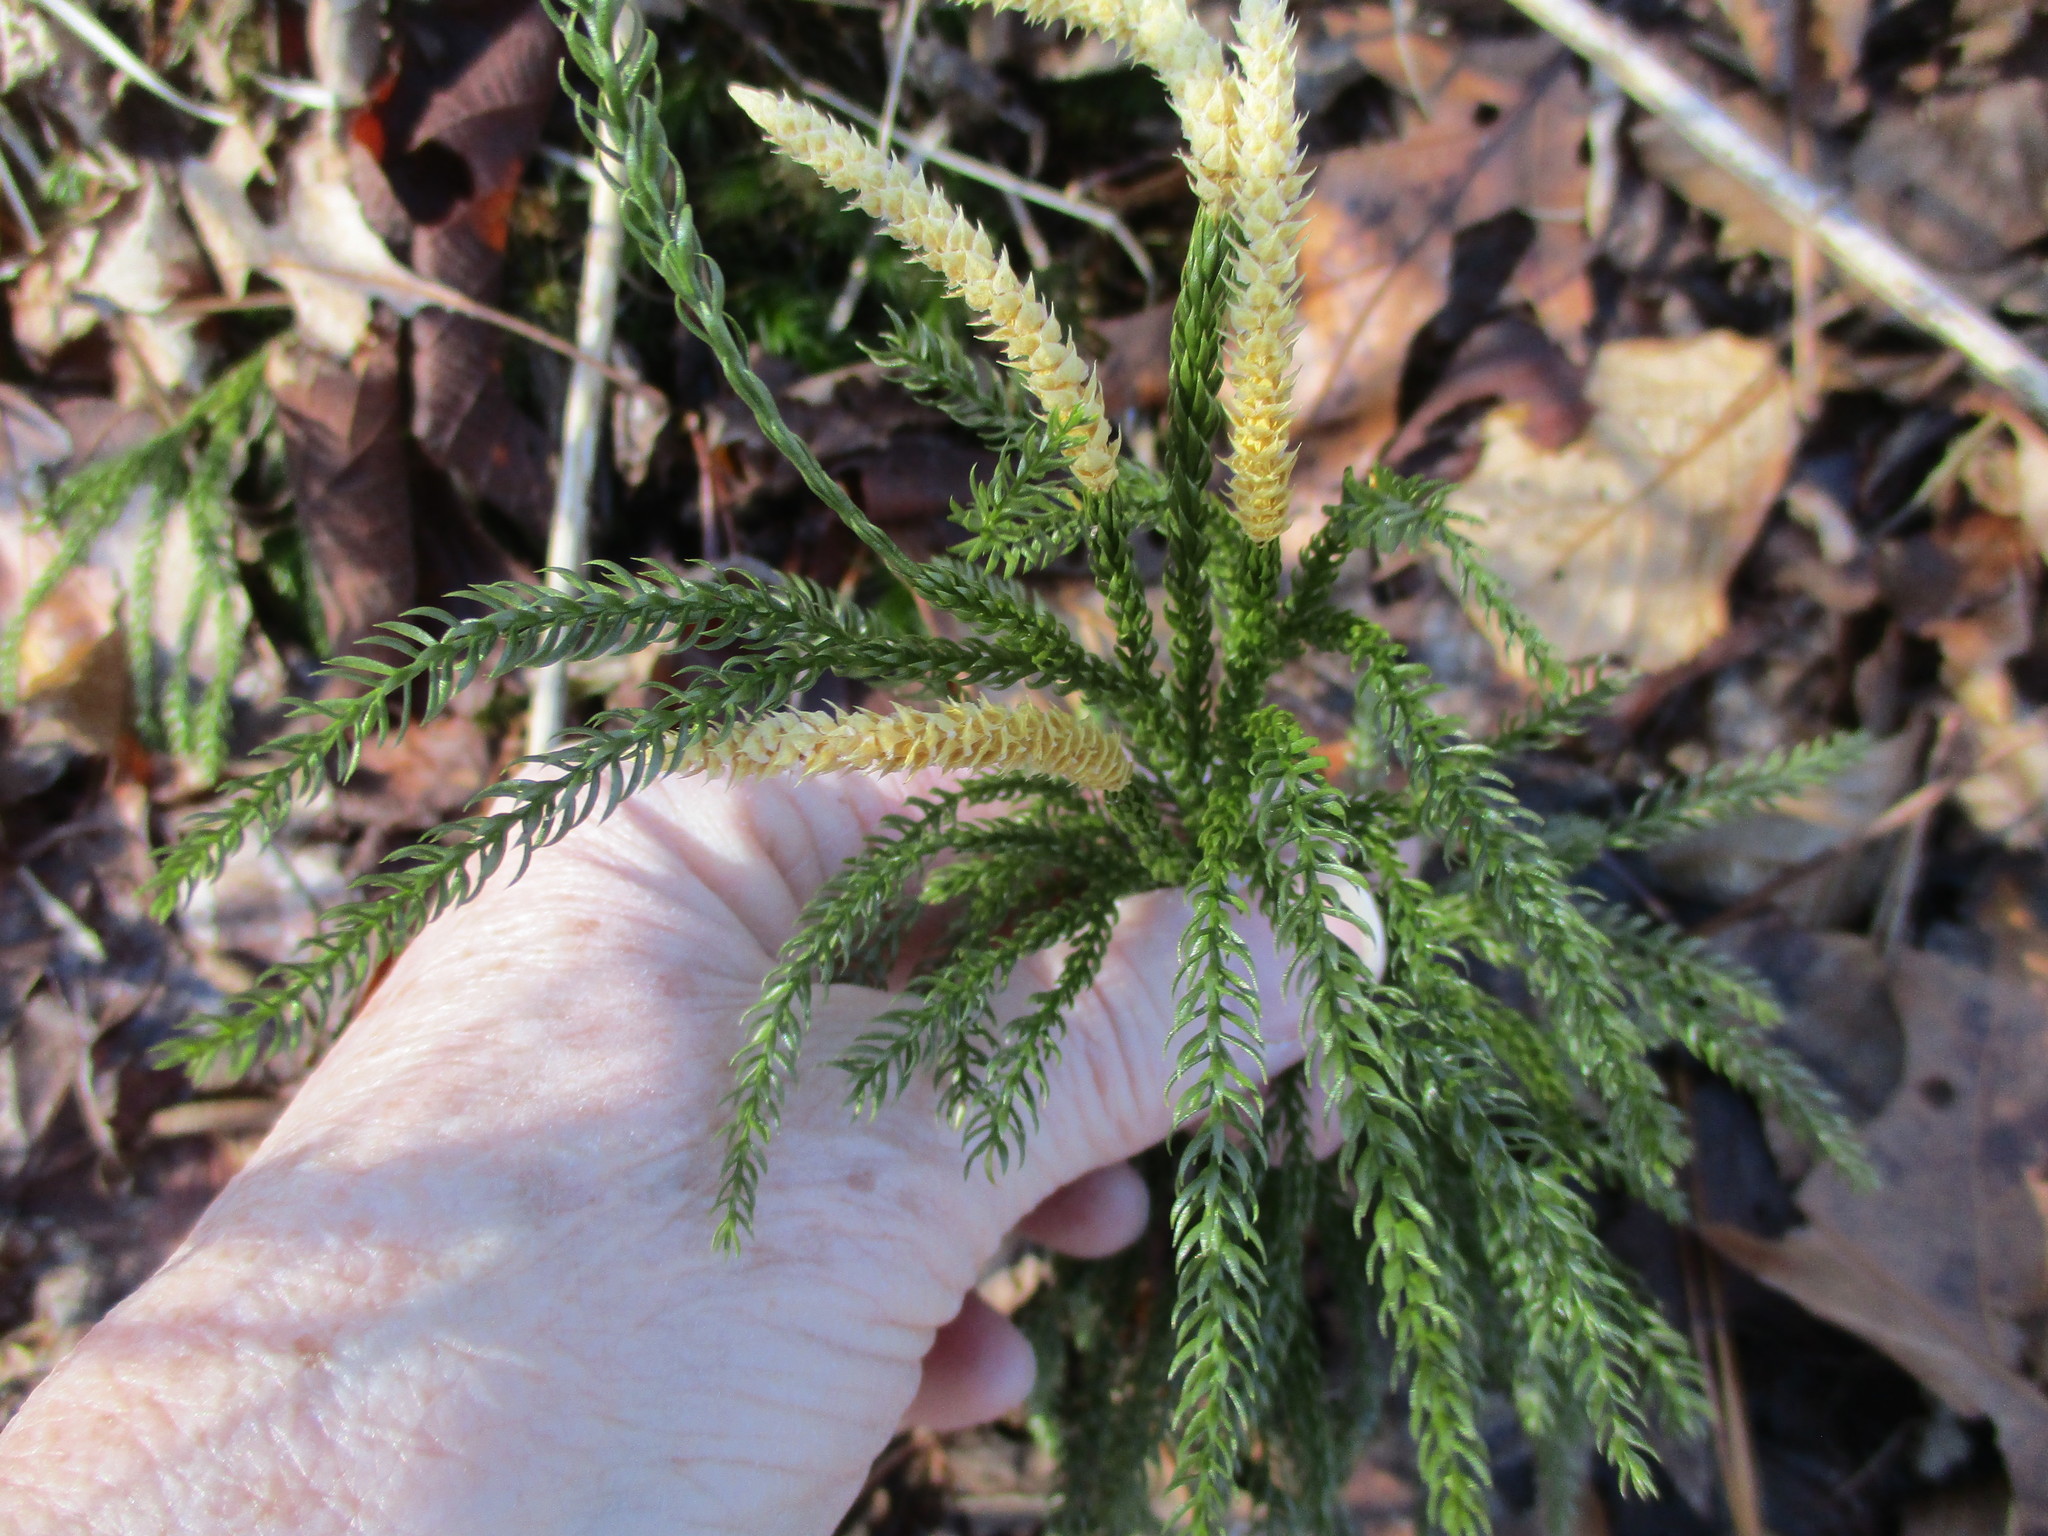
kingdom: Plantae
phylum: Tracheophyta
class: Lycopodiopsida
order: Lycopodiales
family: Lycopodiaceae
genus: Dendrolycopodium
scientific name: Dendrolycopodium obscurum
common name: Common ground-pine
